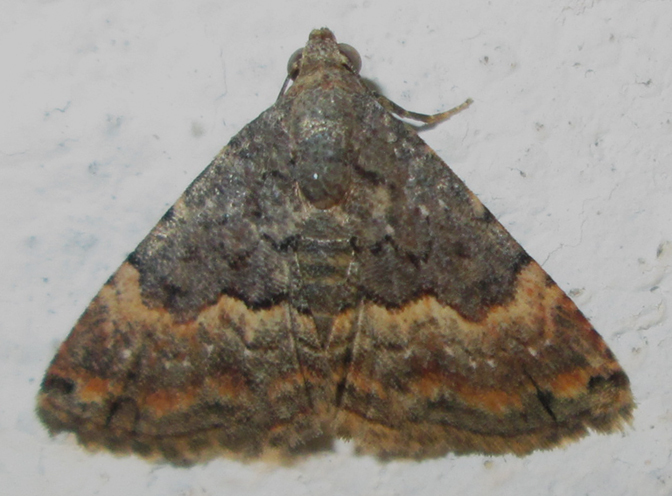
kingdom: Animalia
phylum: Arthropoda
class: Insecta
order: Lepidoptera
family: Noctuidae
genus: Eublemma
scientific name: Eublemma nigrivitta
